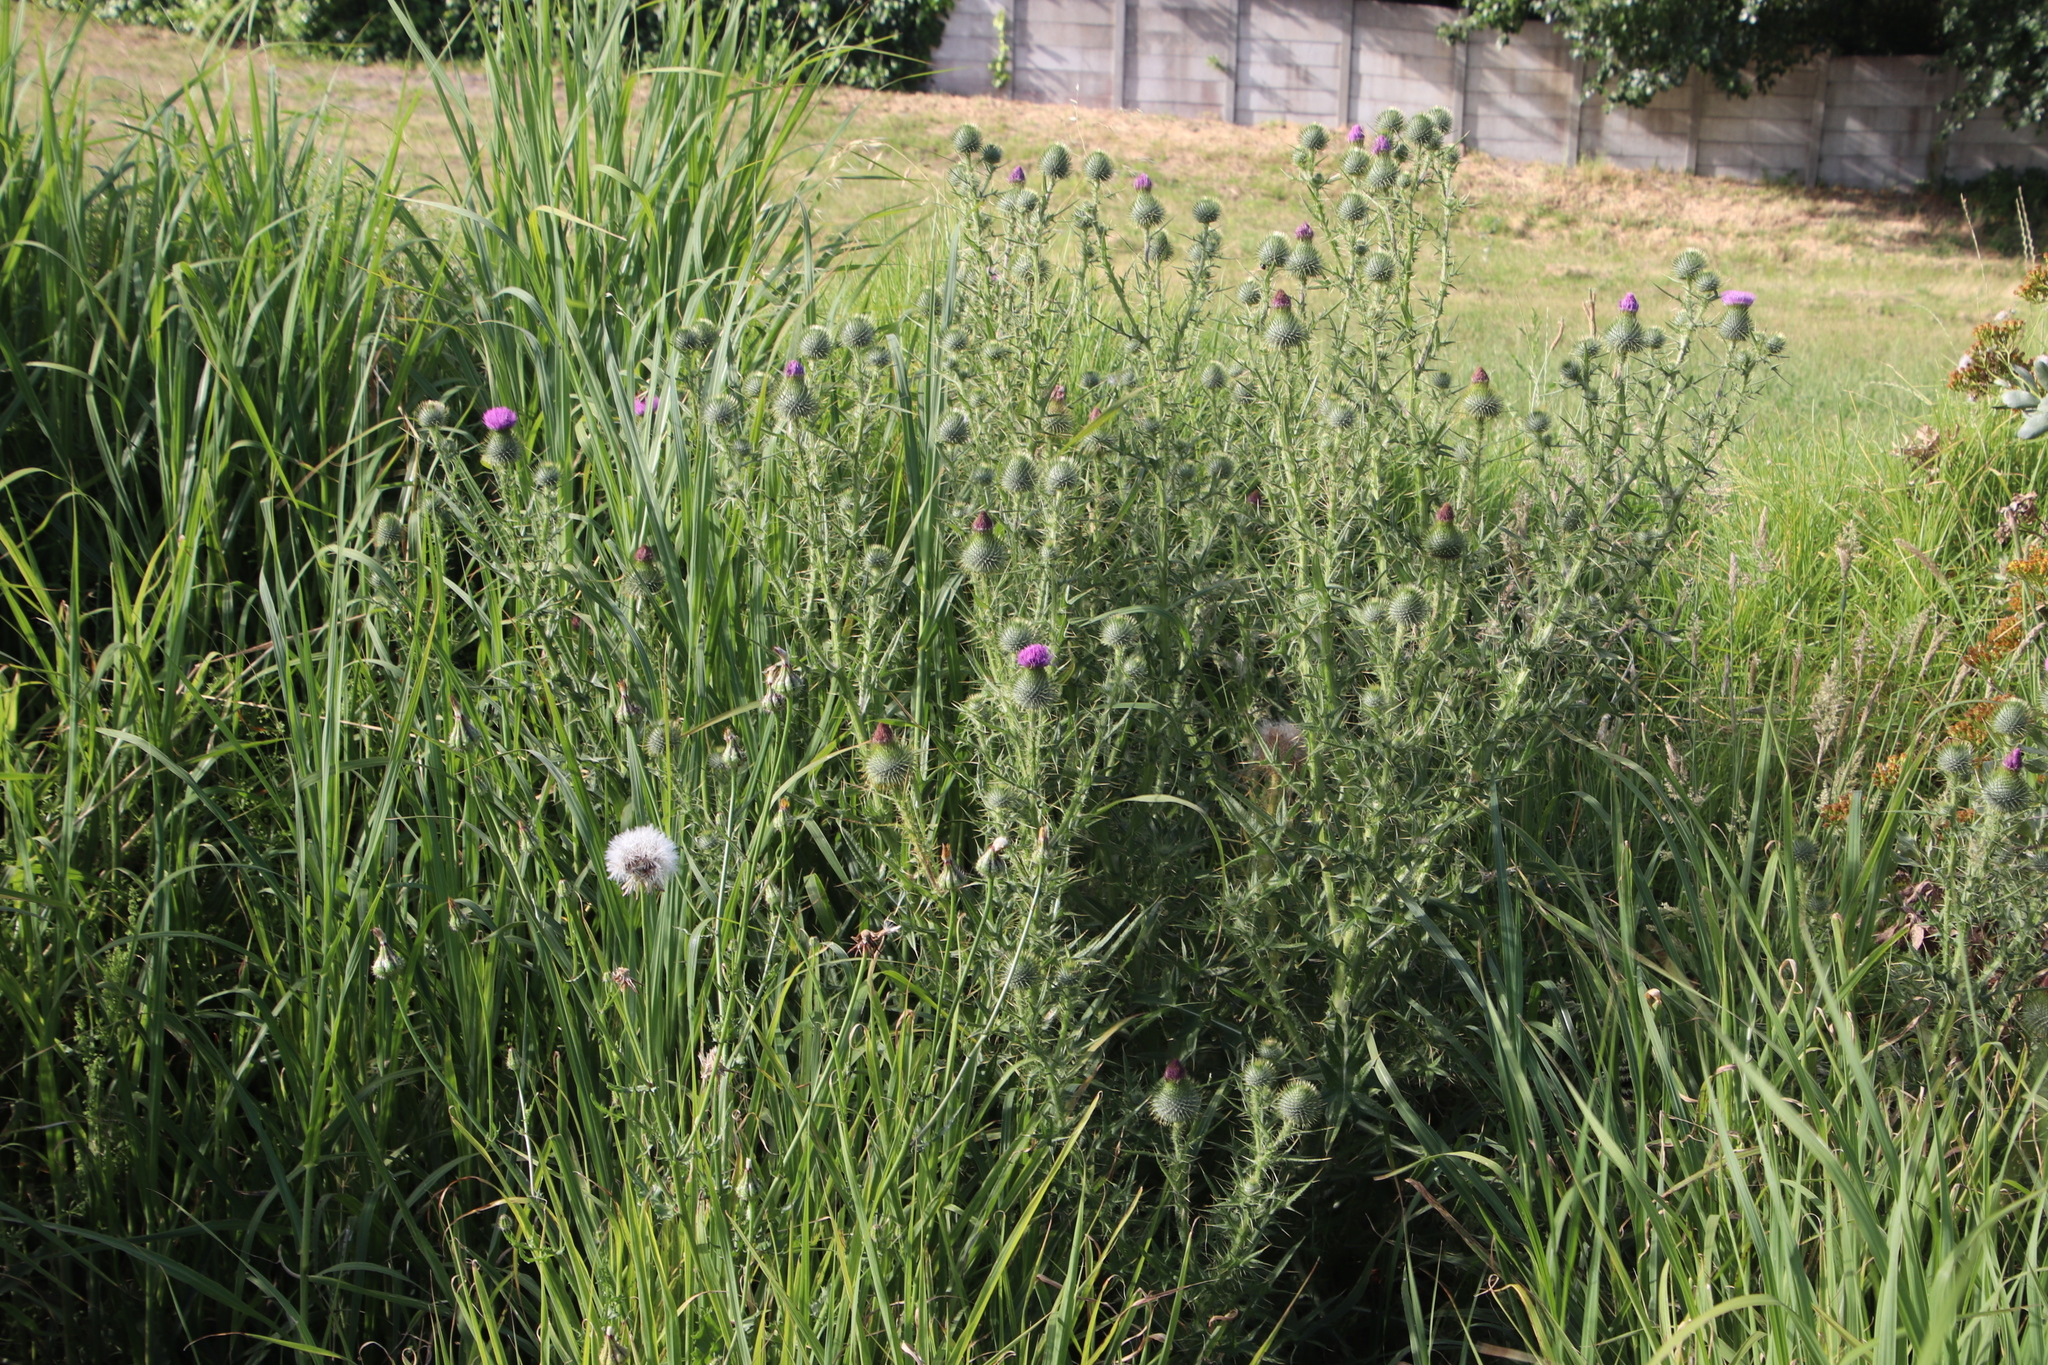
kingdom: Plantae
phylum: Tracheophyta
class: Magnoliopsida
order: Asterales
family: Asteraceae
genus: Cirsium
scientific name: Cirsium vulgare
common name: Bull thistle
